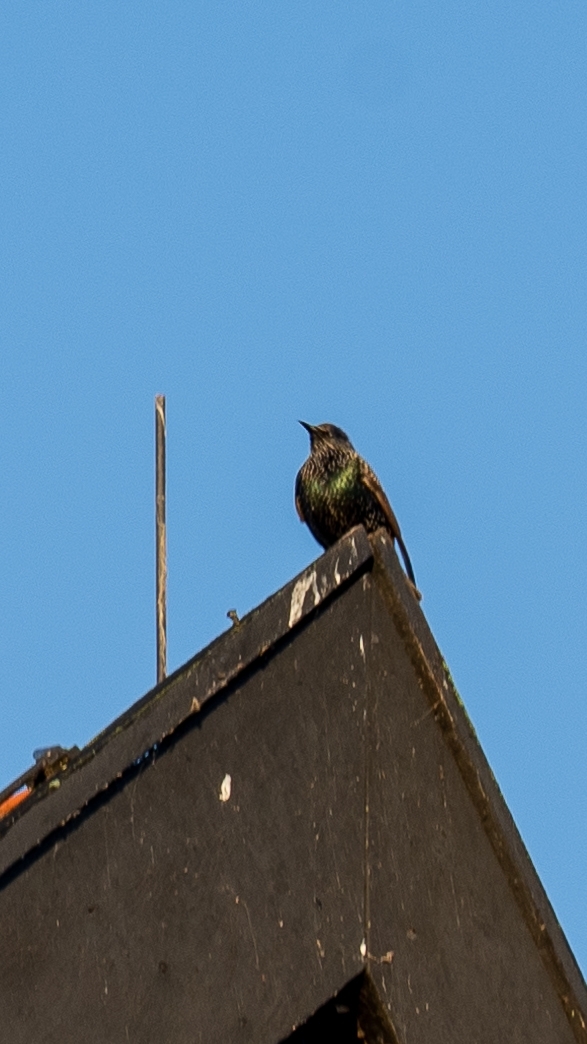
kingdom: Animalia
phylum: Chordata
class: Aves
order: Passeriformes
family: Sturnidae
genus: Sturnus
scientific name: Sturnus vulgaris
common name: Common starling
